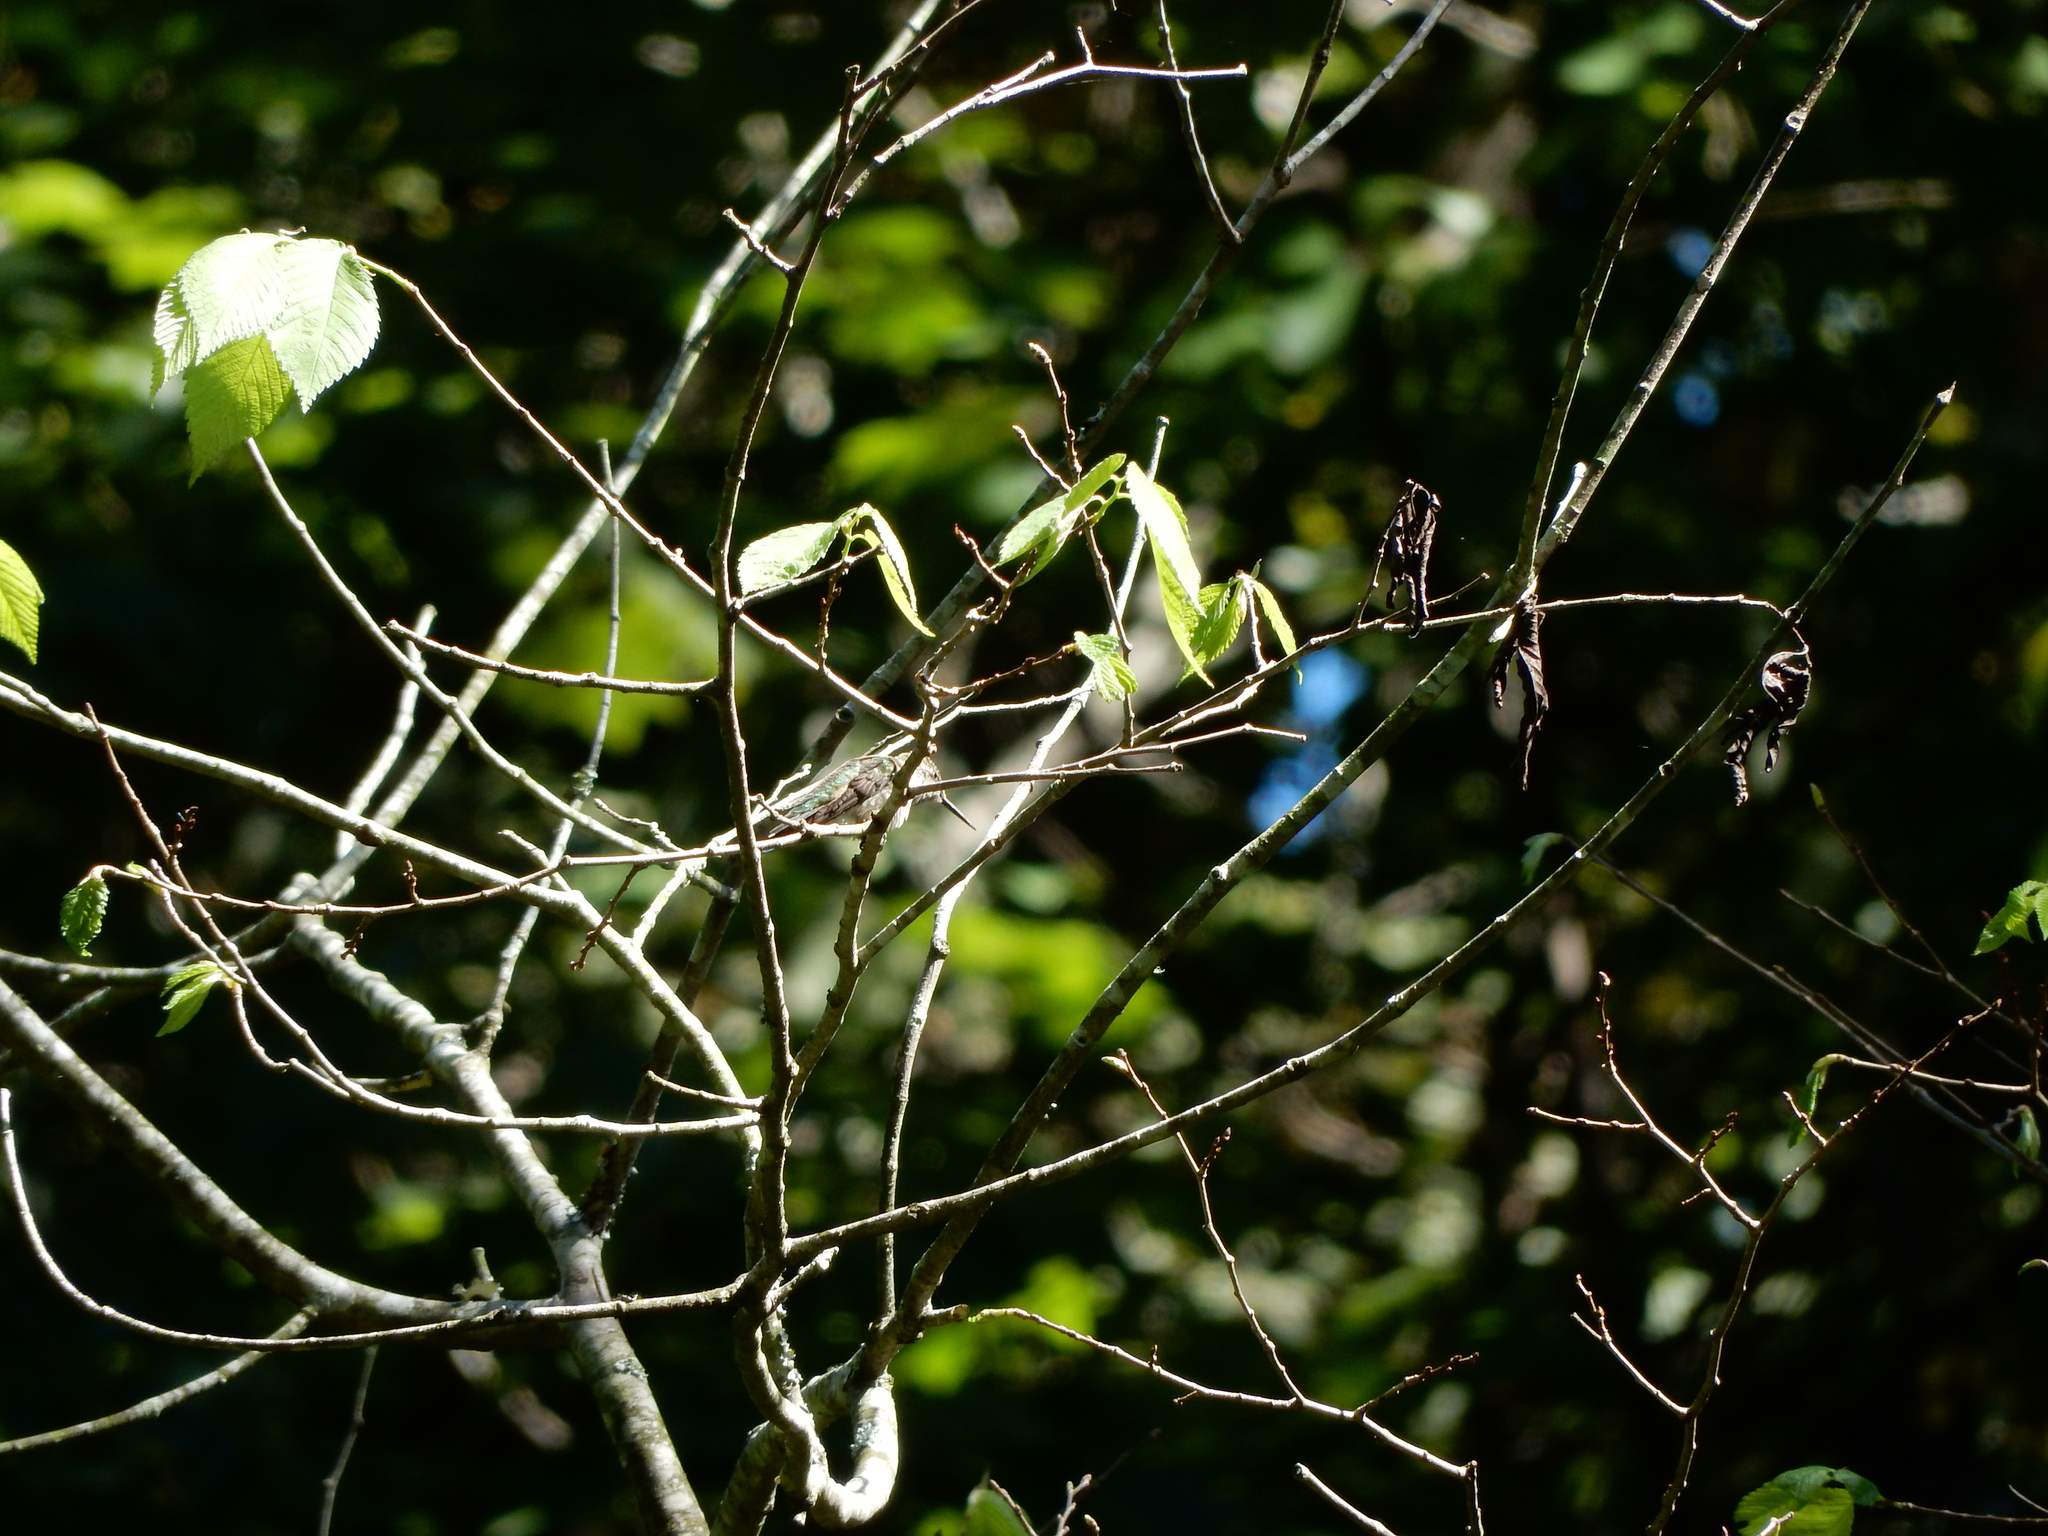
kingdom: Animalia
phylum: Chordata
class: Aves
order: Apodiformes
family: Trochilidae
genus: Archilochus
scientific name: Archilochus colubris
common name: Ruby-throated hummingbird
